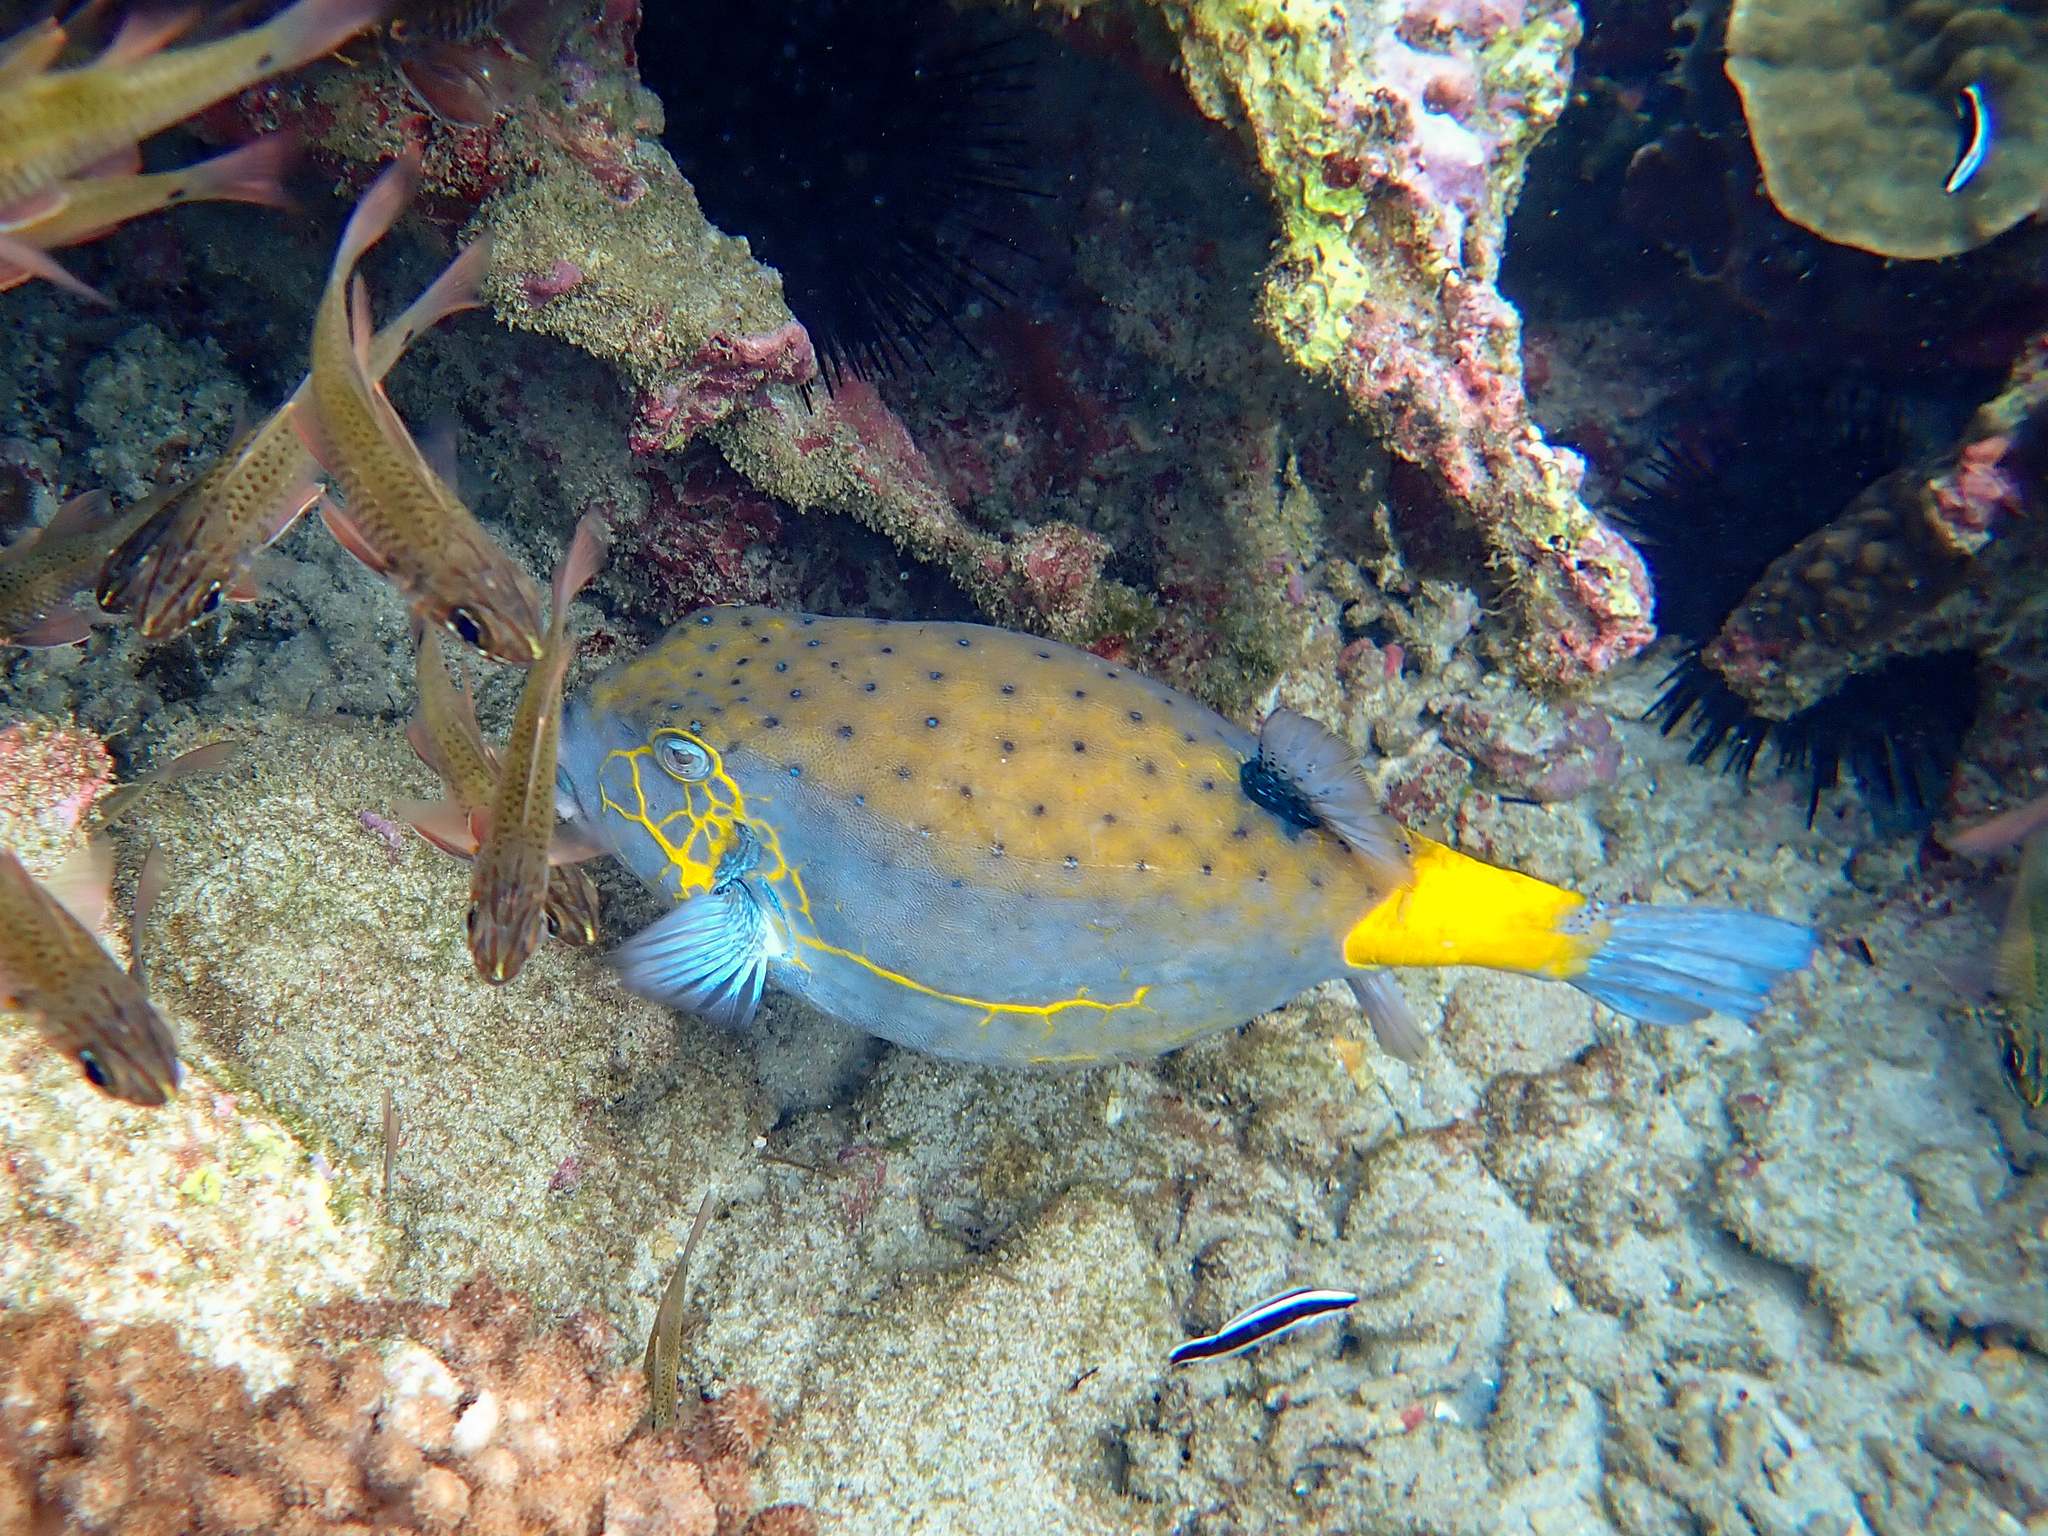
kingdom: Animalia
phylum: Chordata
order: Tetraodontiformes
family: Ostraciidae
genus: Ostracion
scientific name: Ostracion cubicus
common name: Cube trunkfish
